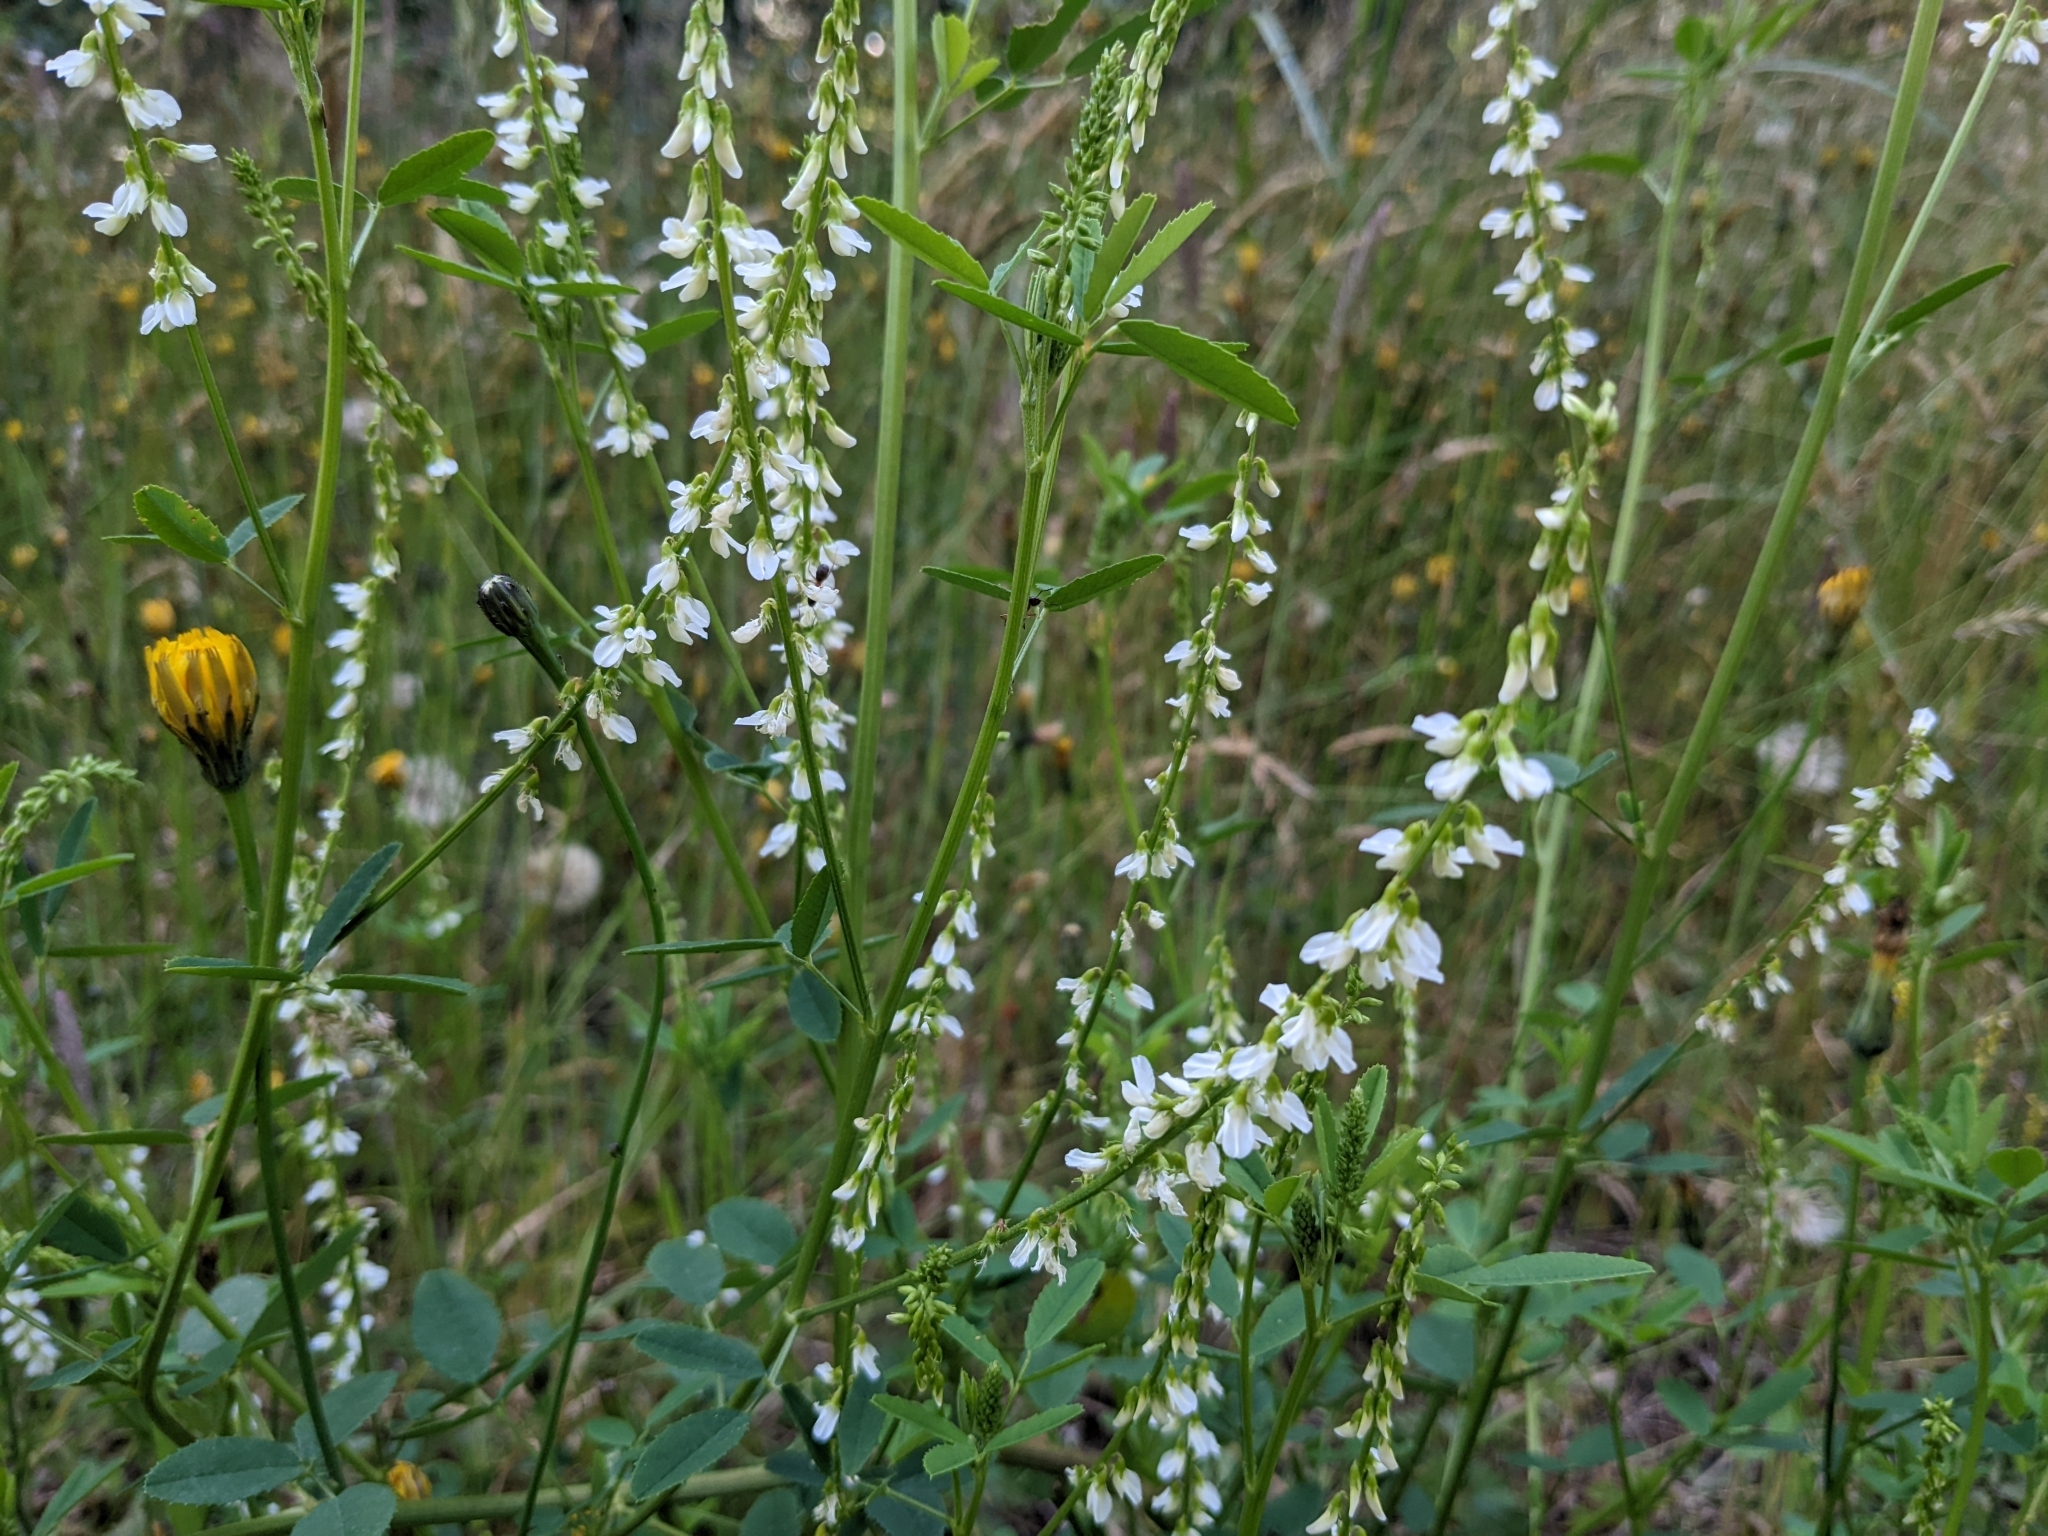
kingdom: Plantae
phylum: Tracheophyta
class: Magnoliopsida
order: Fabales
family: Fabaceae
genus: Melilotus
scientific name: Melilotus albus
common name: White melilot
